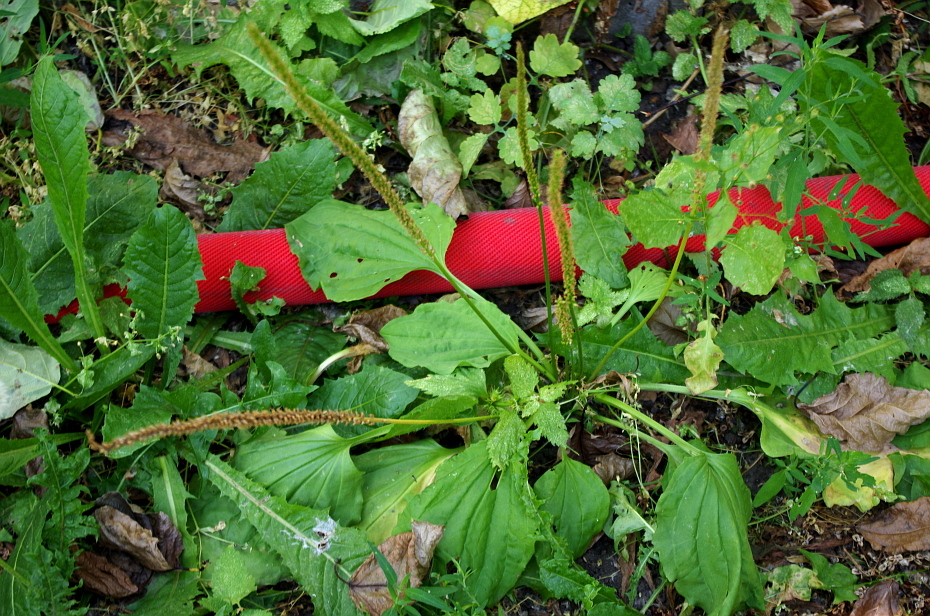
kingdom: Plantae
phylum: Tracheophyta
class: Magnoliopsida
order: Lamiales
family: Plantaginaceae
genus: Plantago
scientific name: Plantago major
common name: Common plantain
